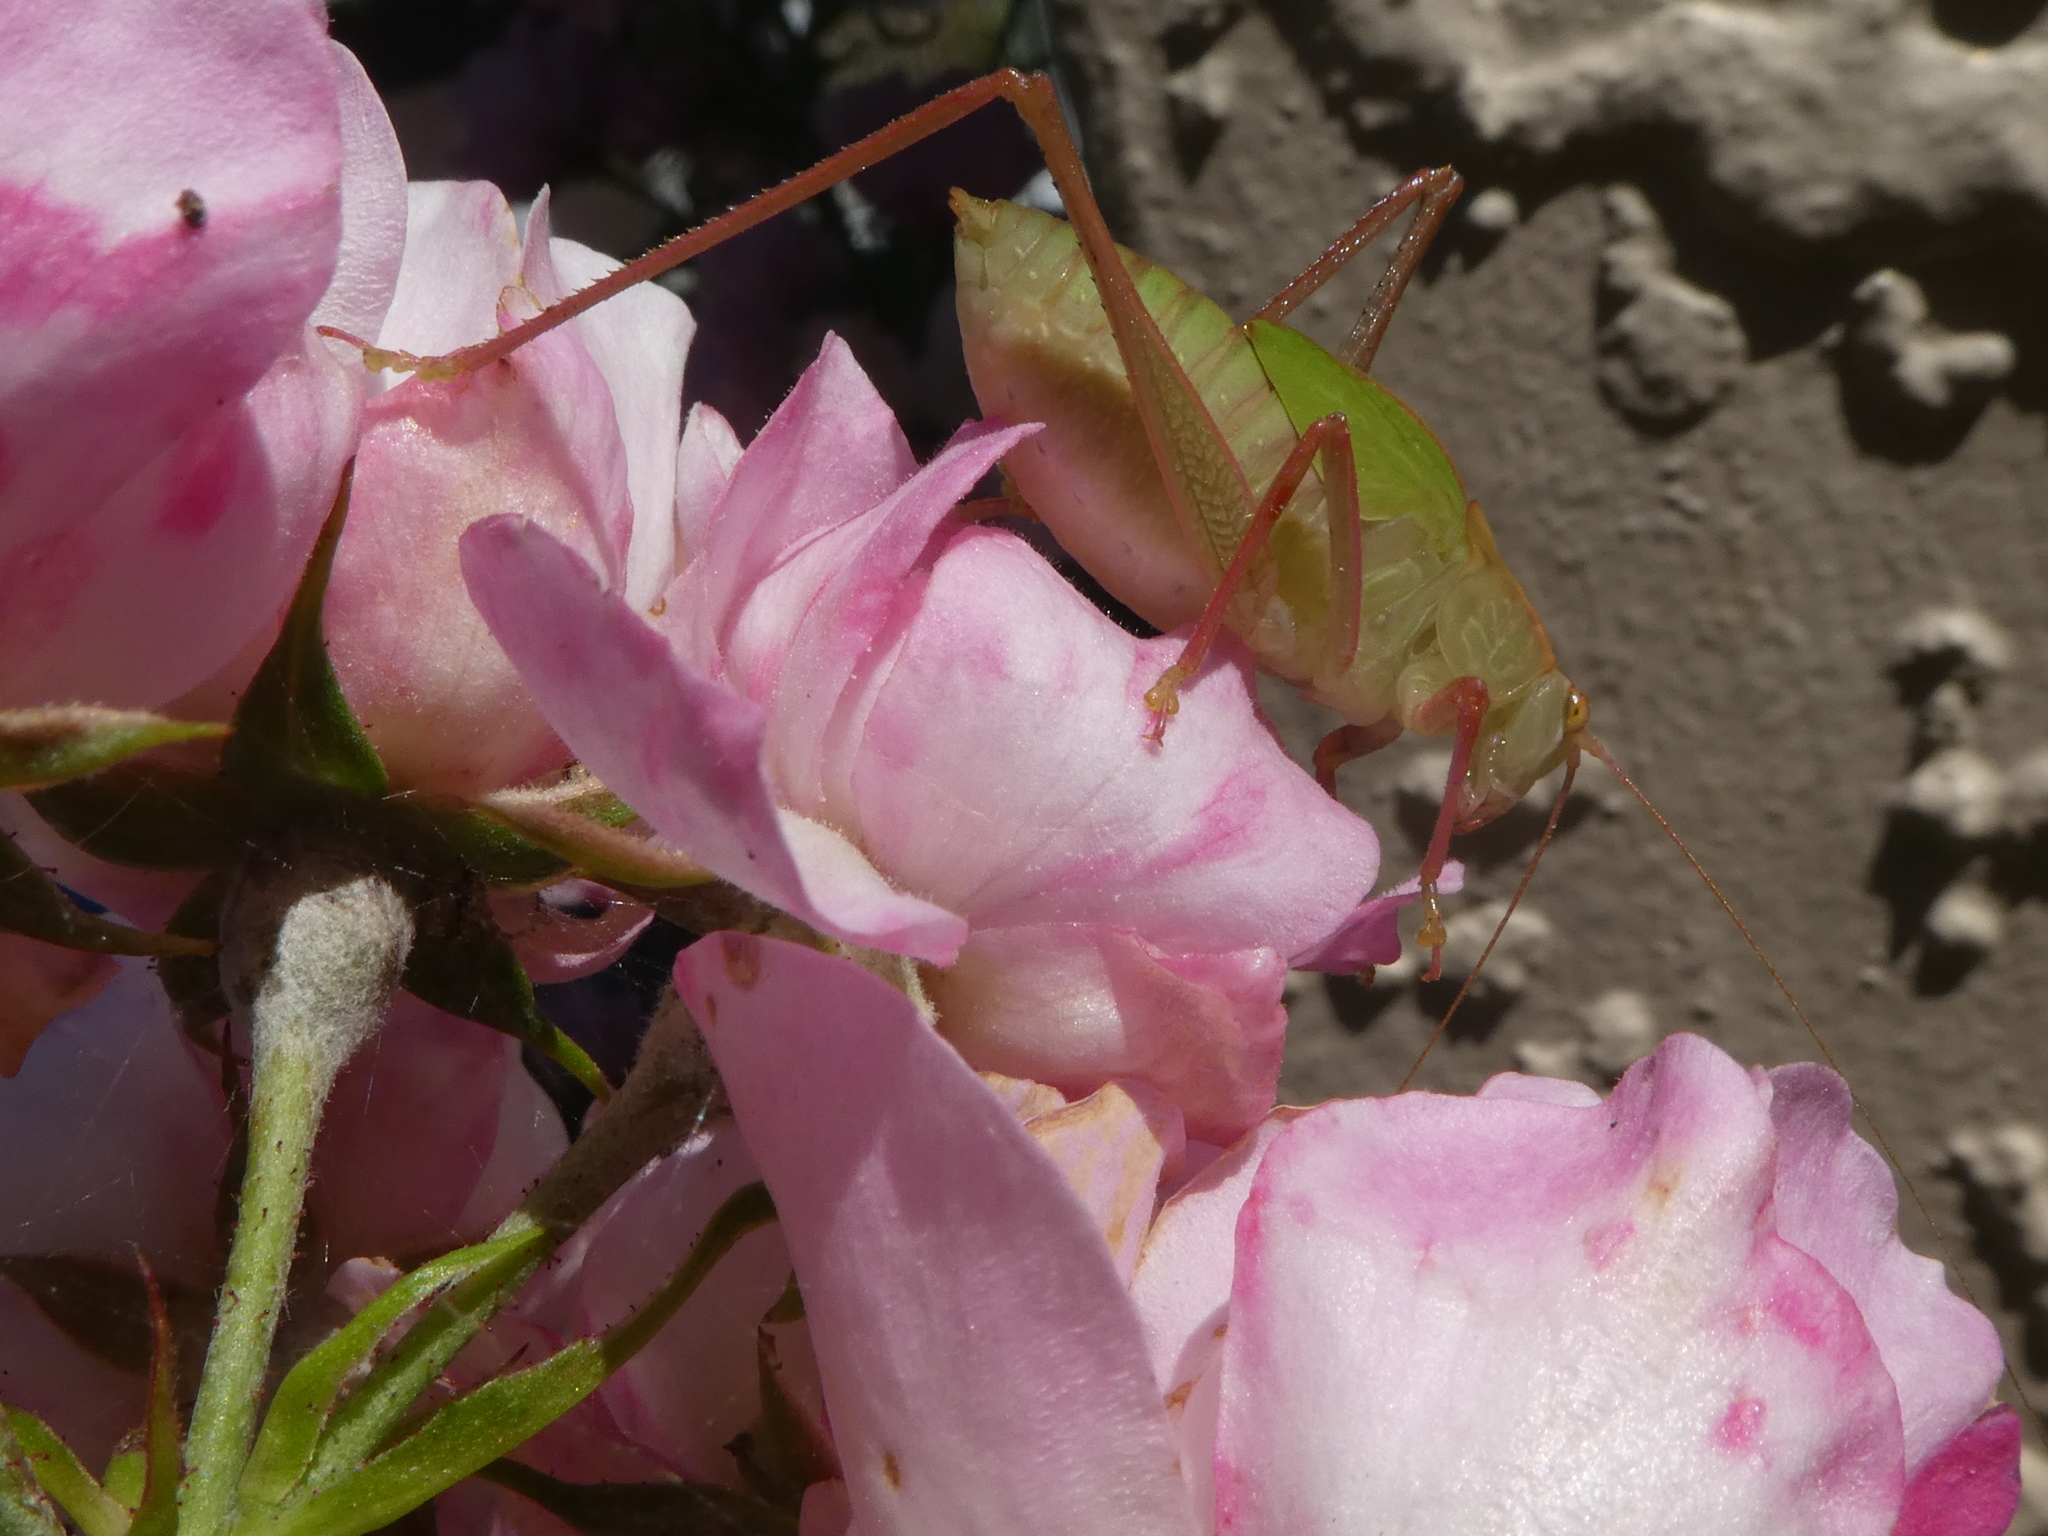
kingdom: Animalia
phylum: Arthropoda
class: Insecta
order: Orthoptera
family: Tettigoniidae
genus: Caedicia
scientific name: Caedicia simplex
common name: Common garden katydid
